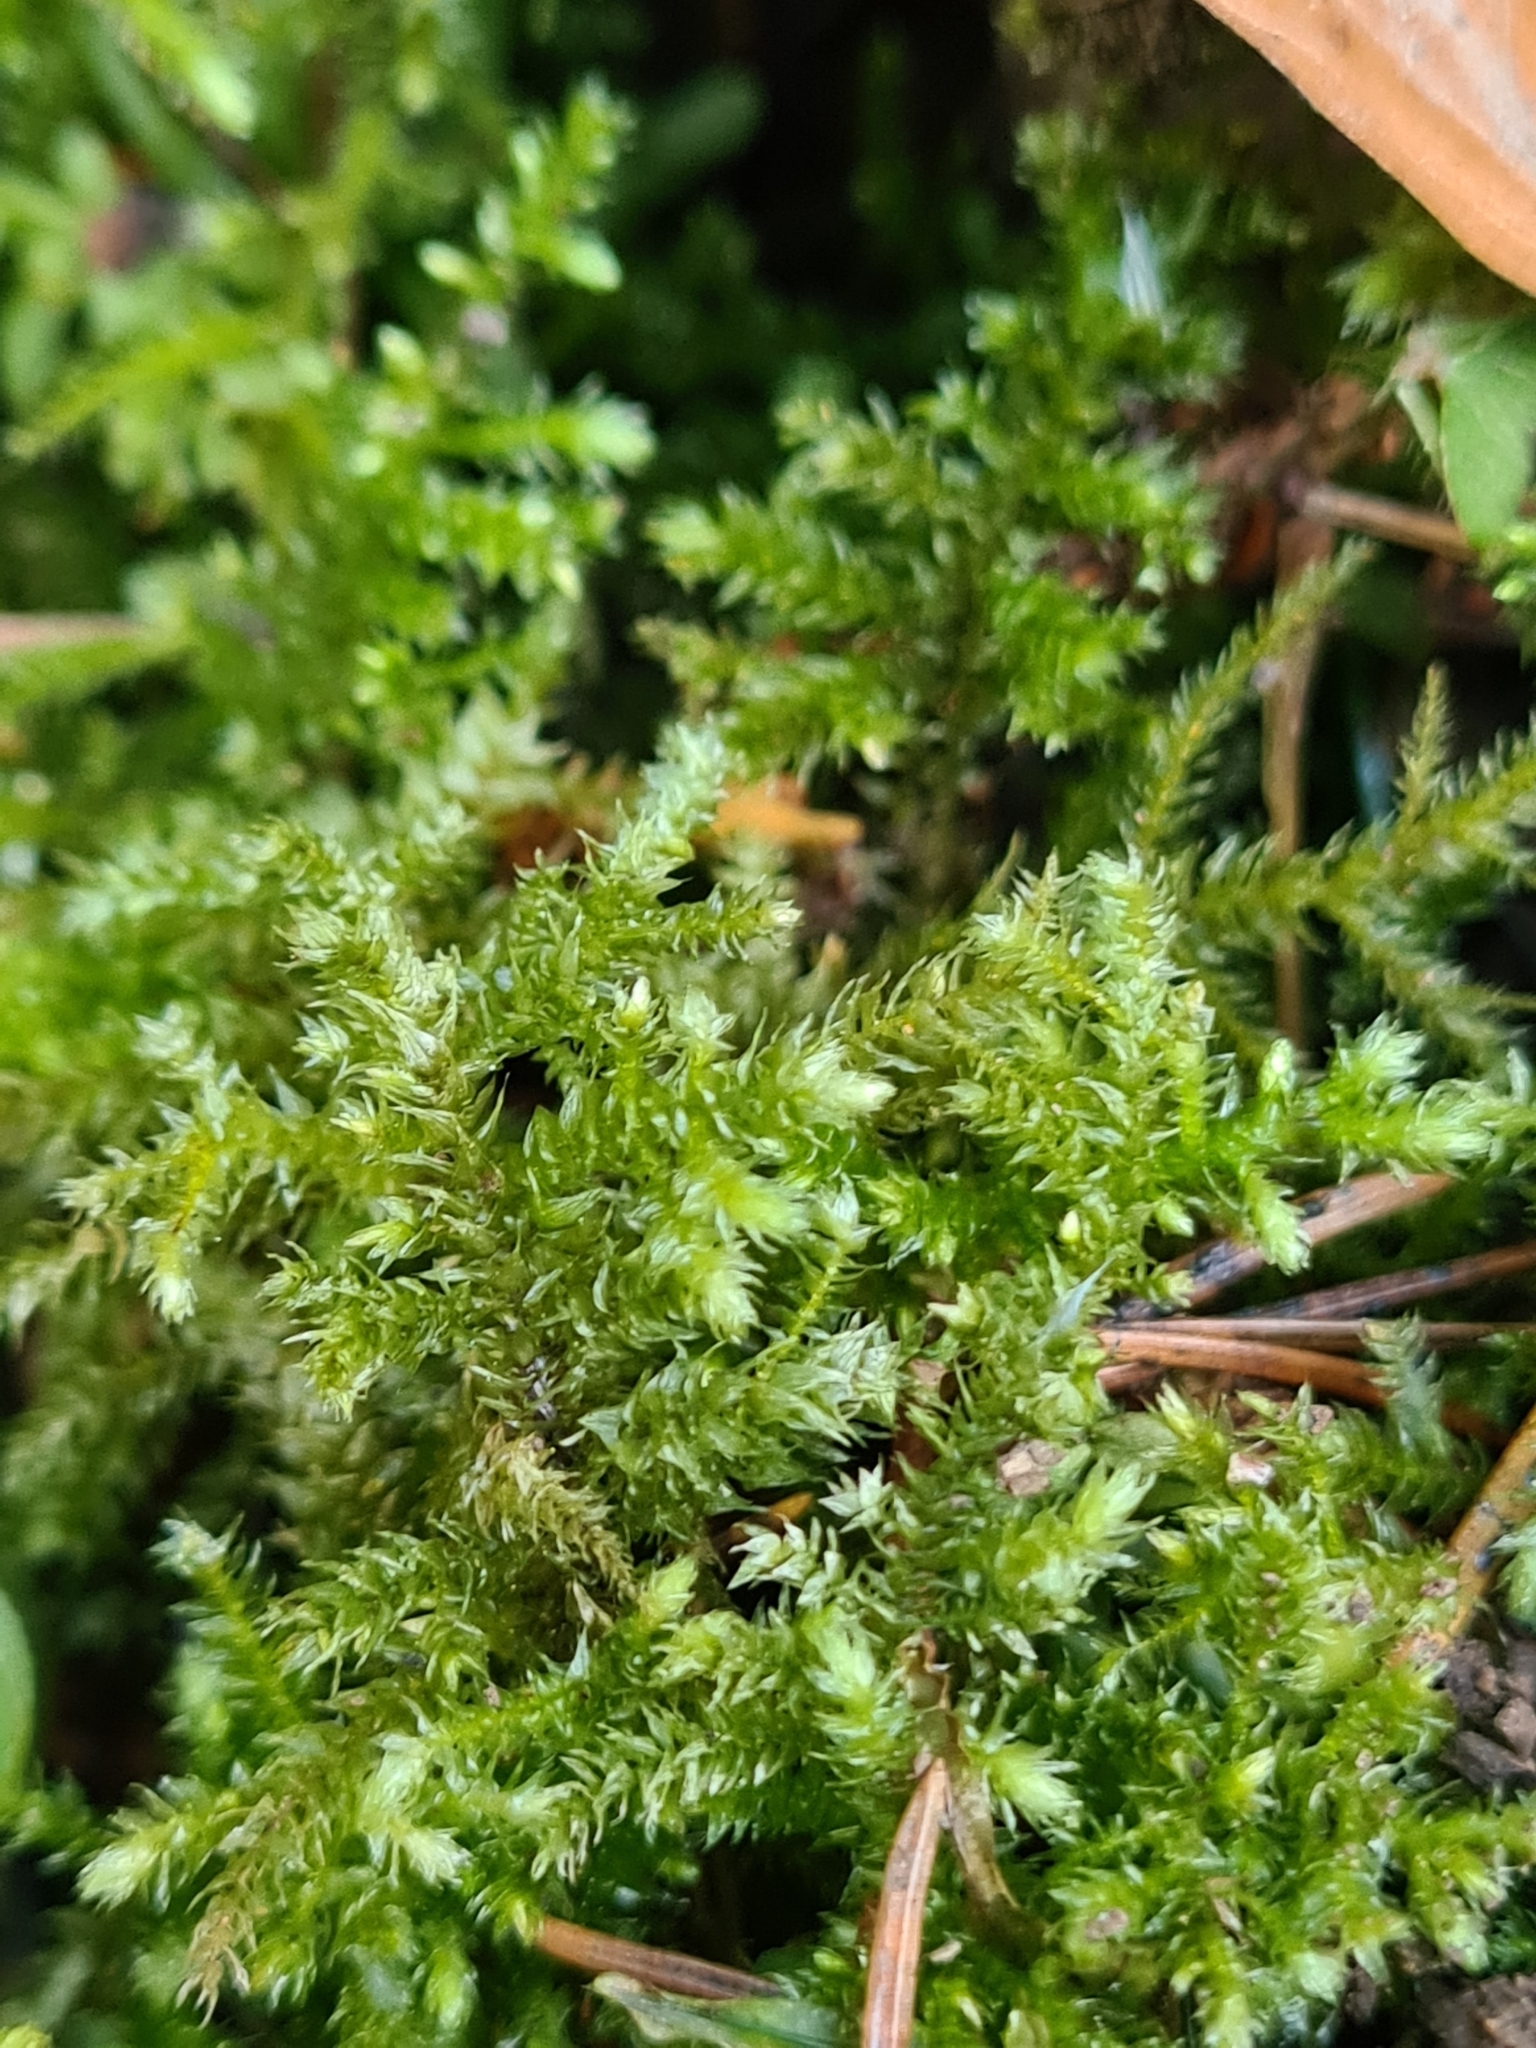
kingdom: Plantae
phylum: Bryophyta
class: Bryopsida
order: Hypnales
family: Brachytheciaceae
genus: Eurhynchium
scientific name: Eurhynchium striatum
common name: Common striated feather-moss
